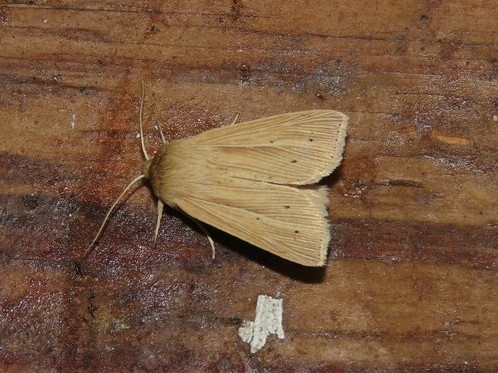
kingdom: Animalia
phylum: Arthropoda
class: Insecta
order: Lepidoptera
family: Noctuidae
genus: Mythimna
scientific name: Mythimna oxygala
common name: Lesser wainscot
